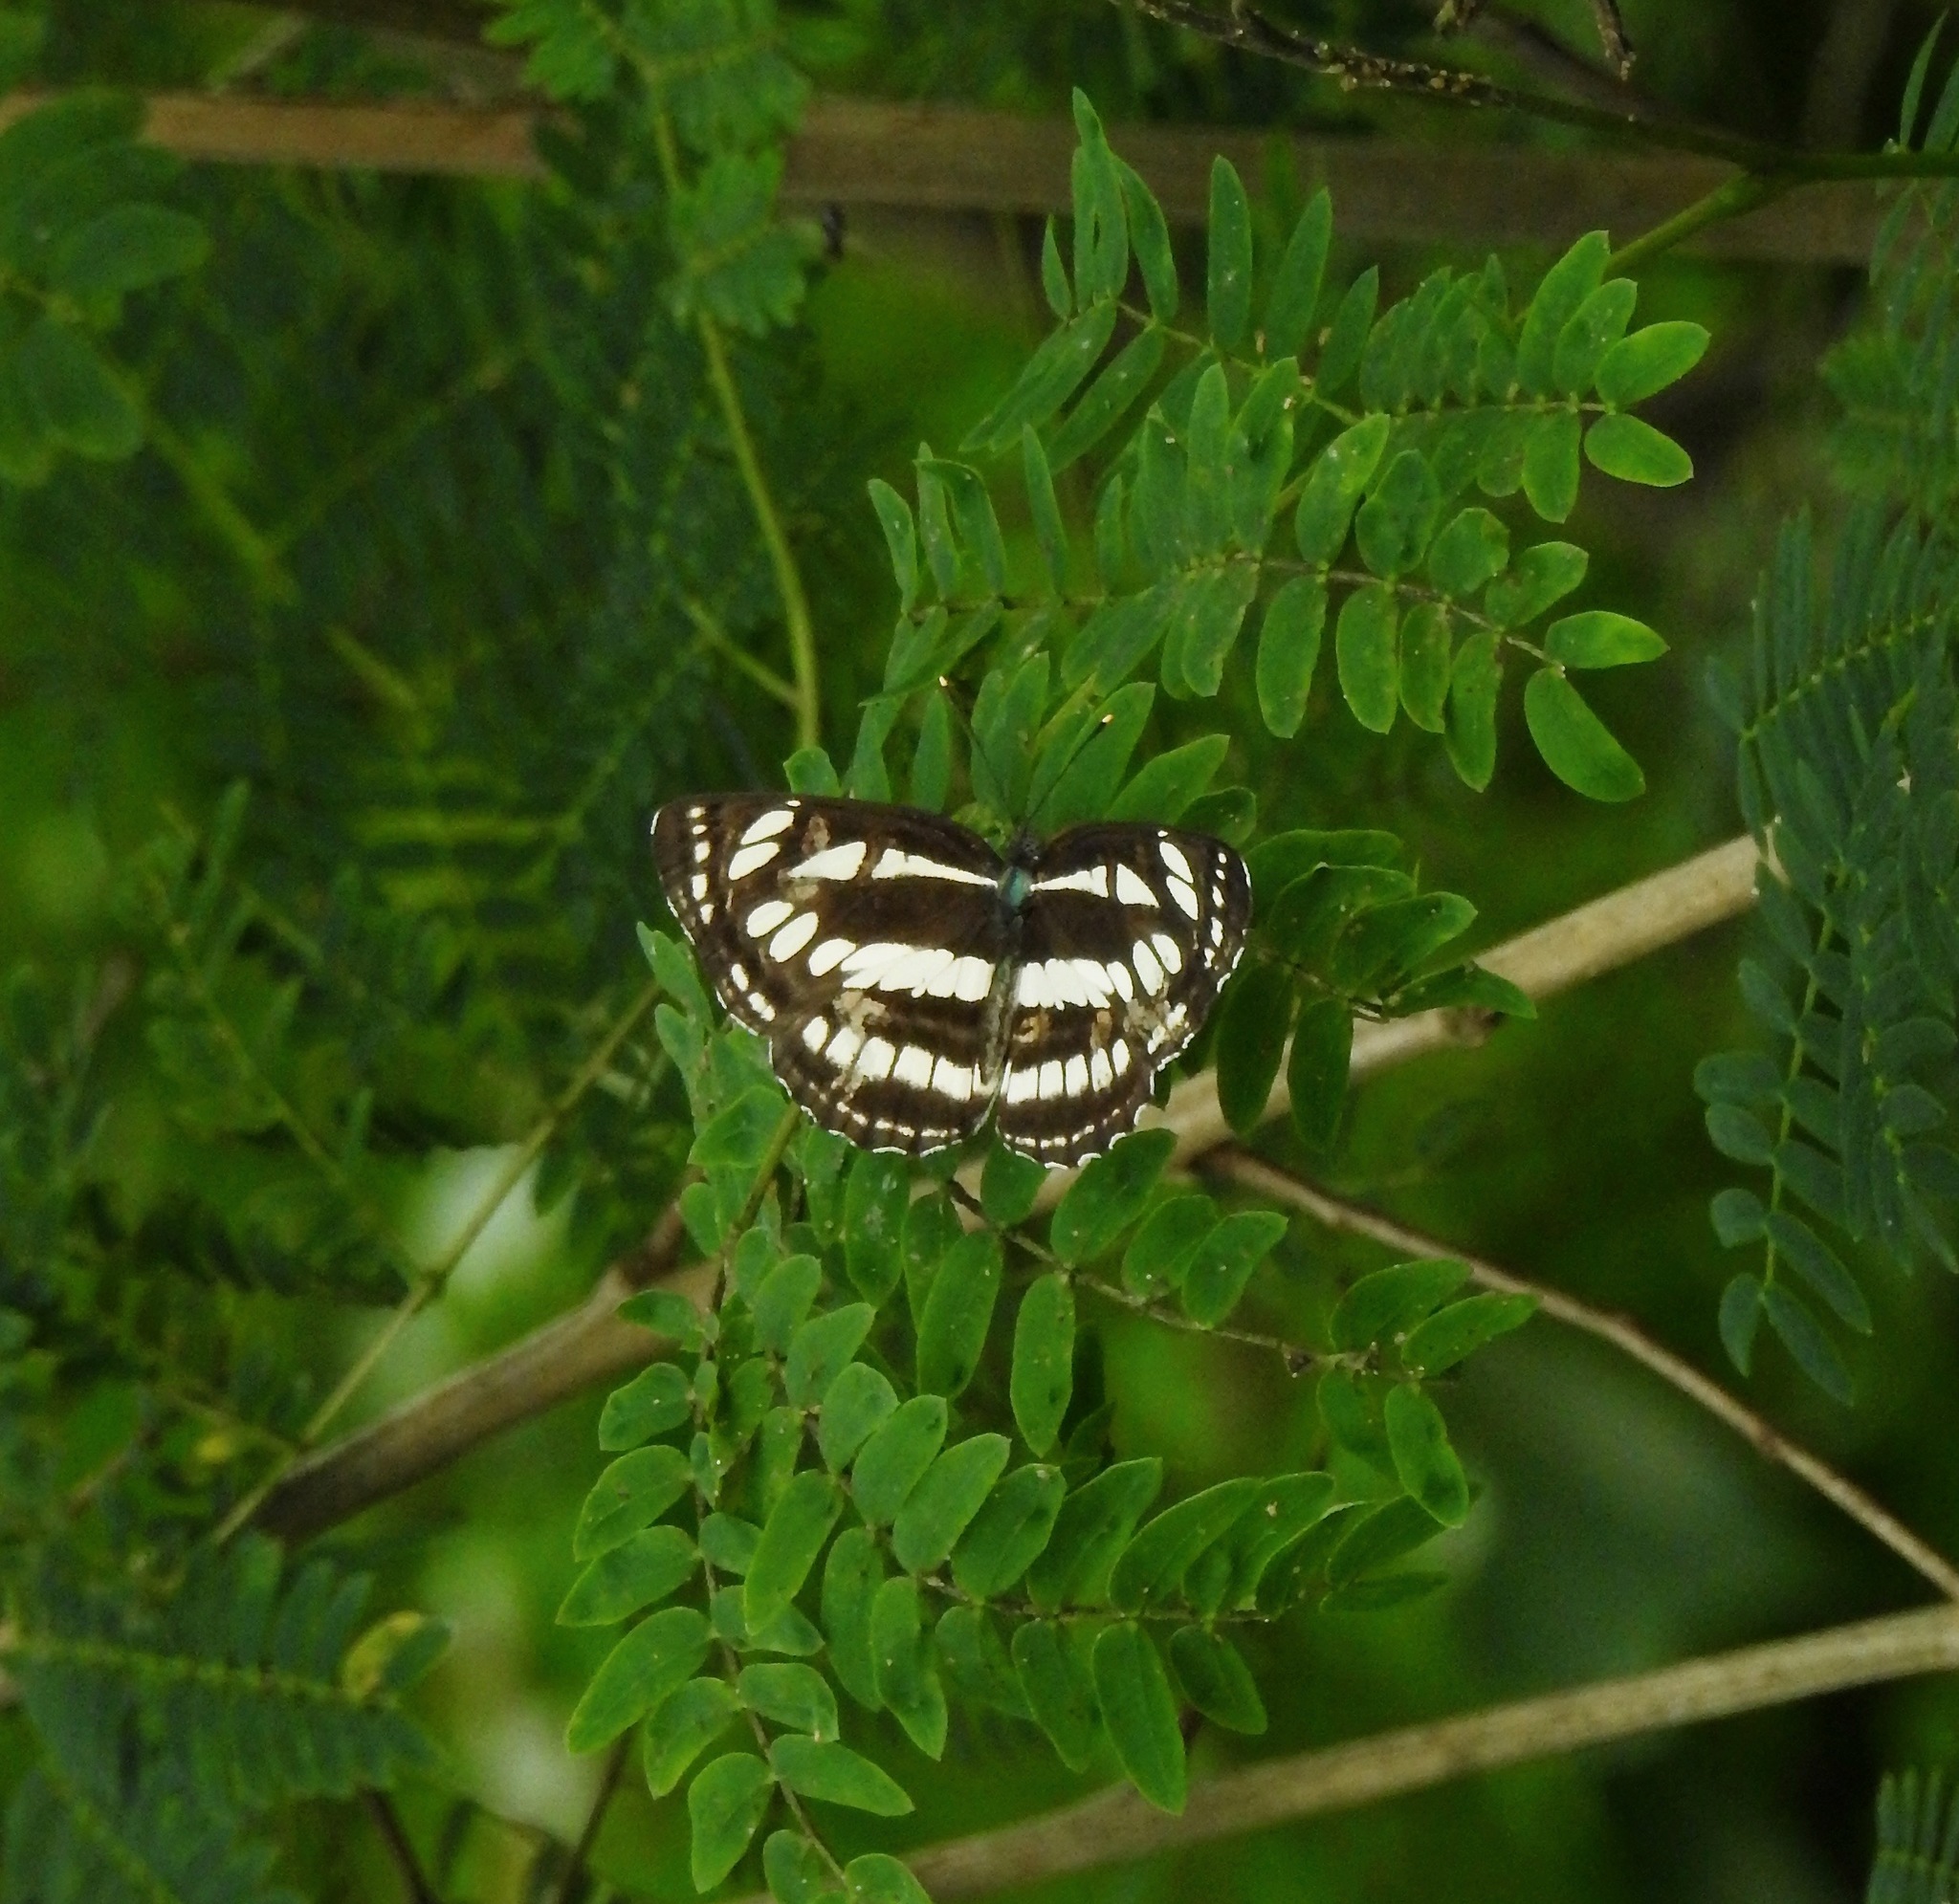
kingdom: Animalia
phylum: Arthropoda
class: Insecta
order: Lepidoptera
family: Nymphalidae
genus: Neptis
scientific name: Neptis hylas
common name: Common sailer
